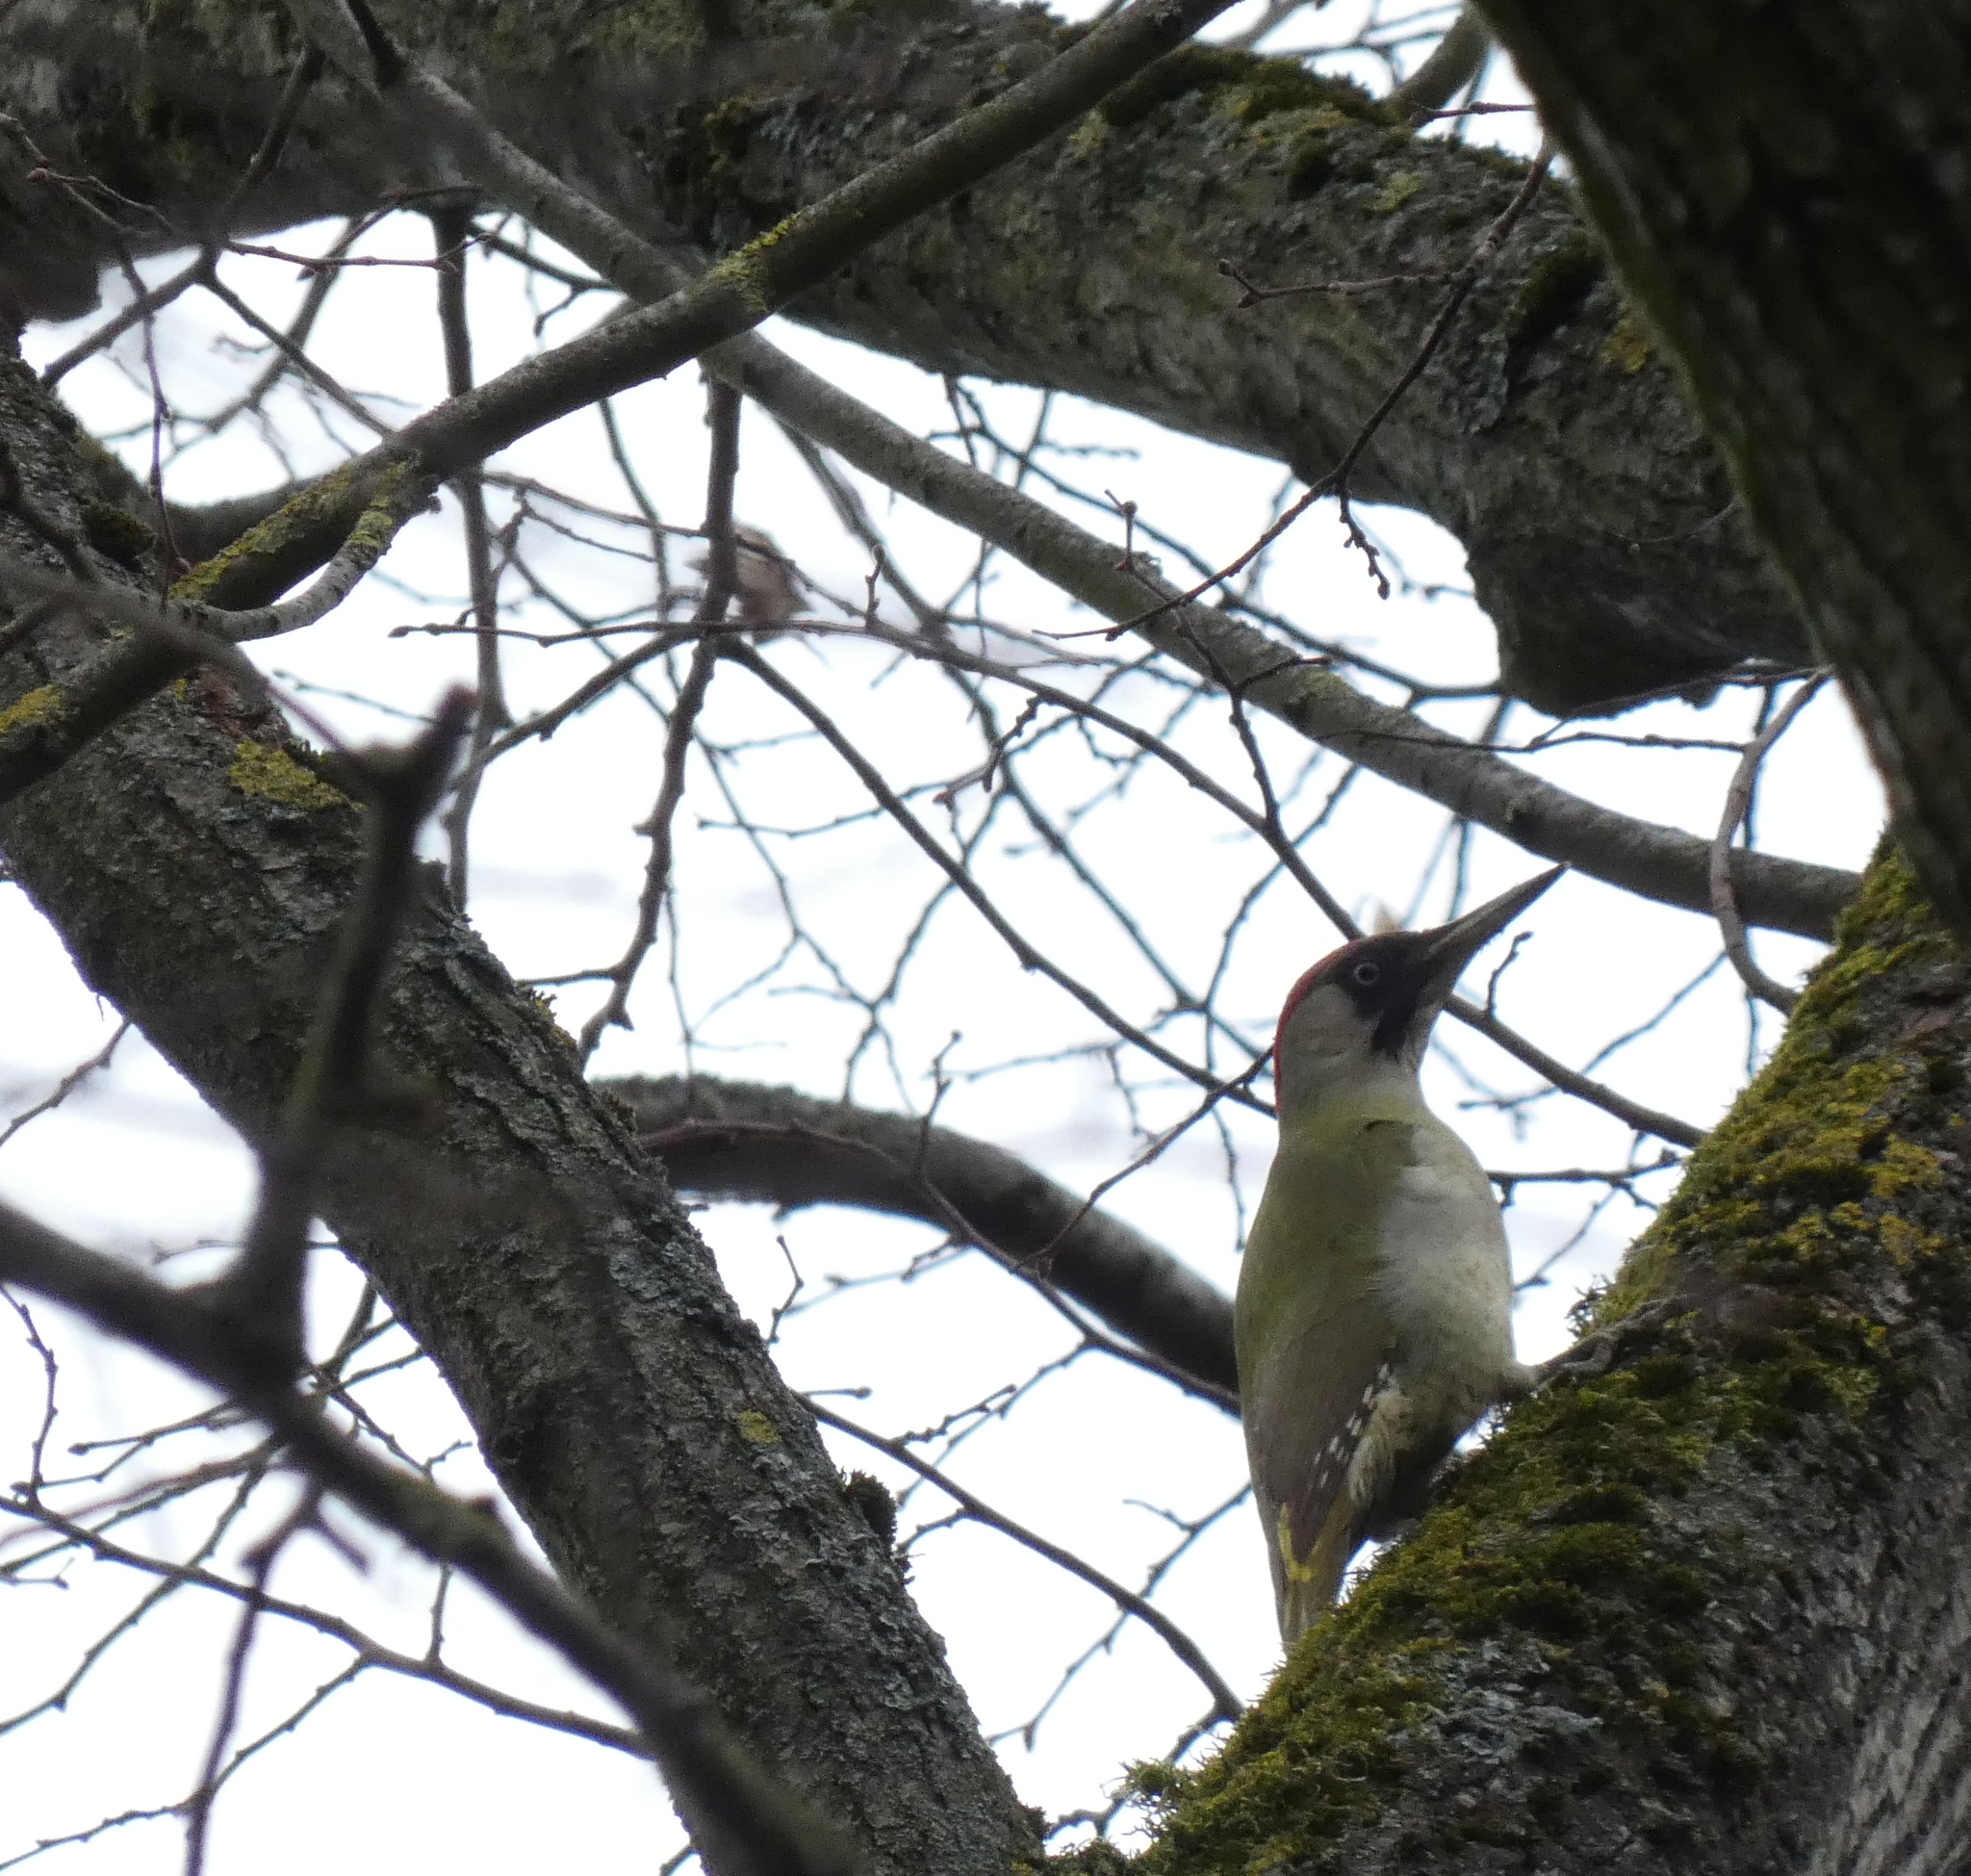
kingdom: Animalia
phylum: Chordata
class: Aves
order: Piciformes
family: Picidae
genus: Picus
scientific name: Picus viridis
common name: European green woodpecker
